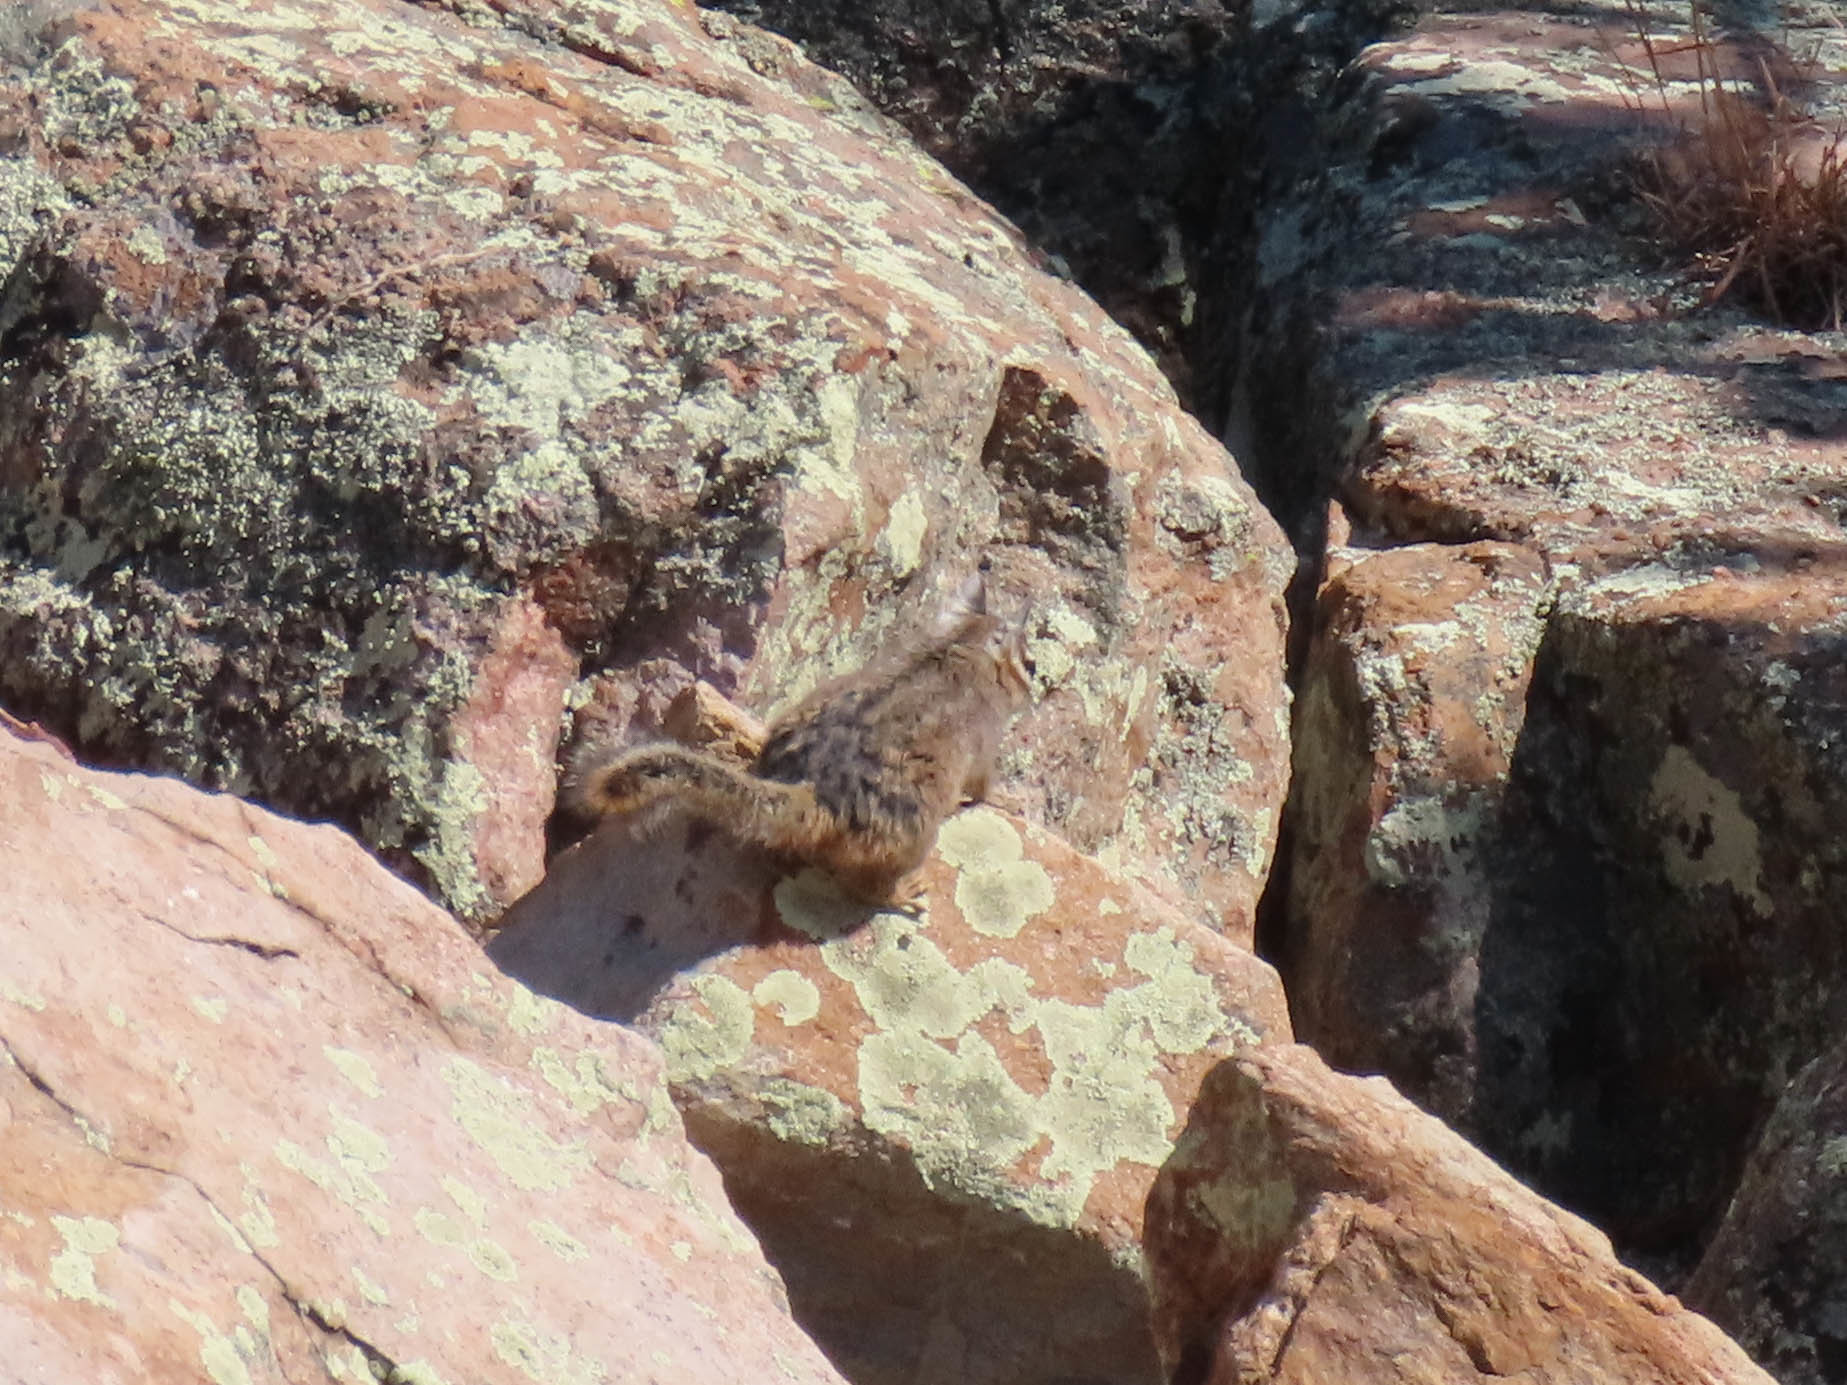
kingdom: Animalia
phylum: Chordata
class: Mammalia
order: Rodentia
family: Sciuridae
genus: Tamias
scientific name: Tamias dorsalis
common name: Cliff chipmunk
